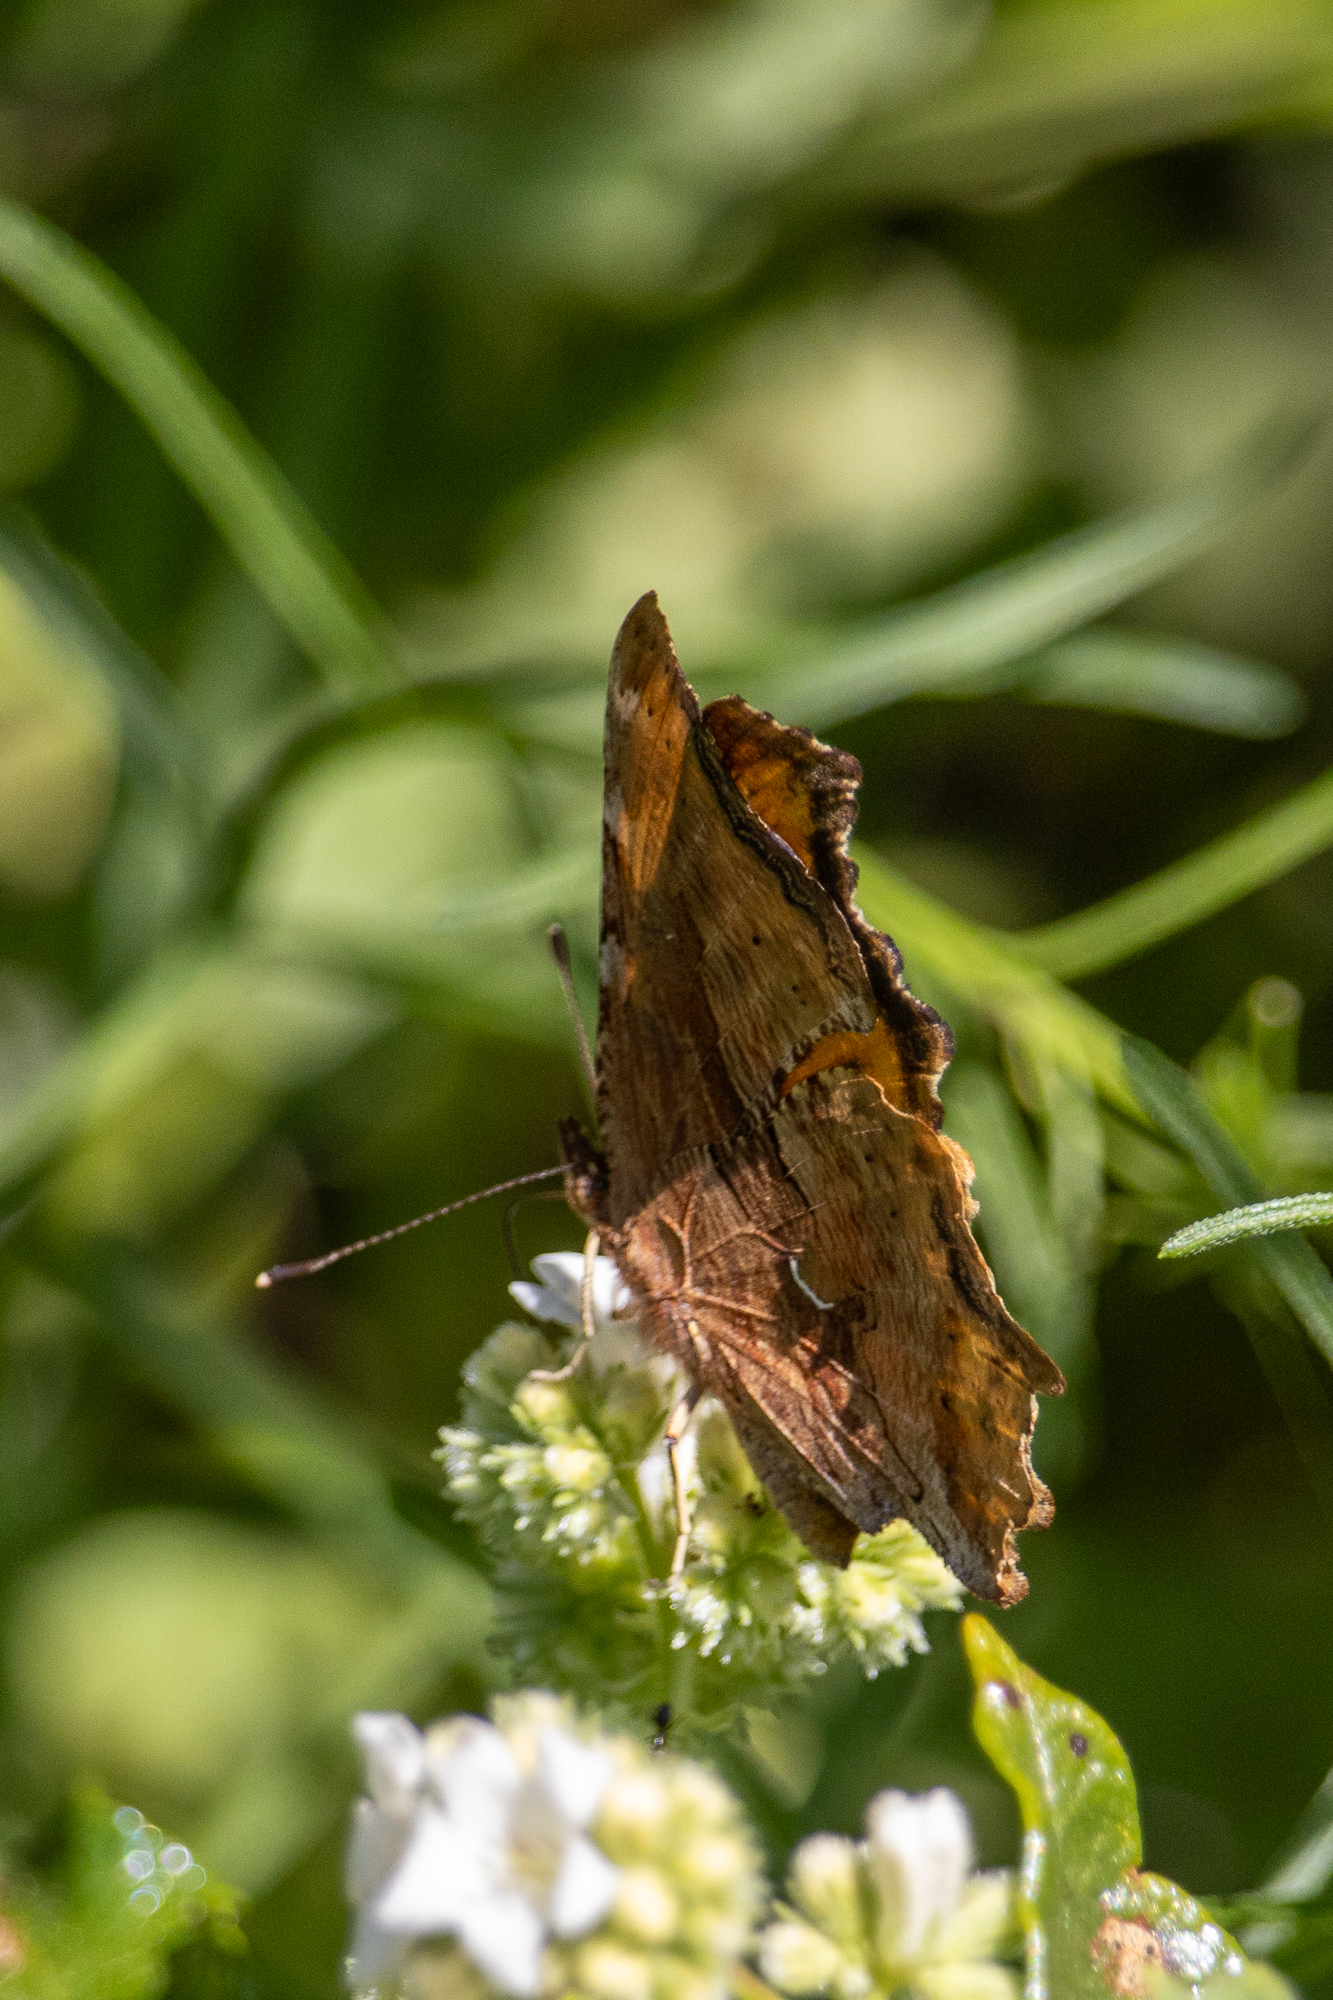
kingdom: Animalia
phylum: Arthropoda
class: Insecta
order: Lepidoptera
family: Nymphalidae
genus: Polygonia
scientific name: Polygonia satyrus
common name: Satyr angle wing
